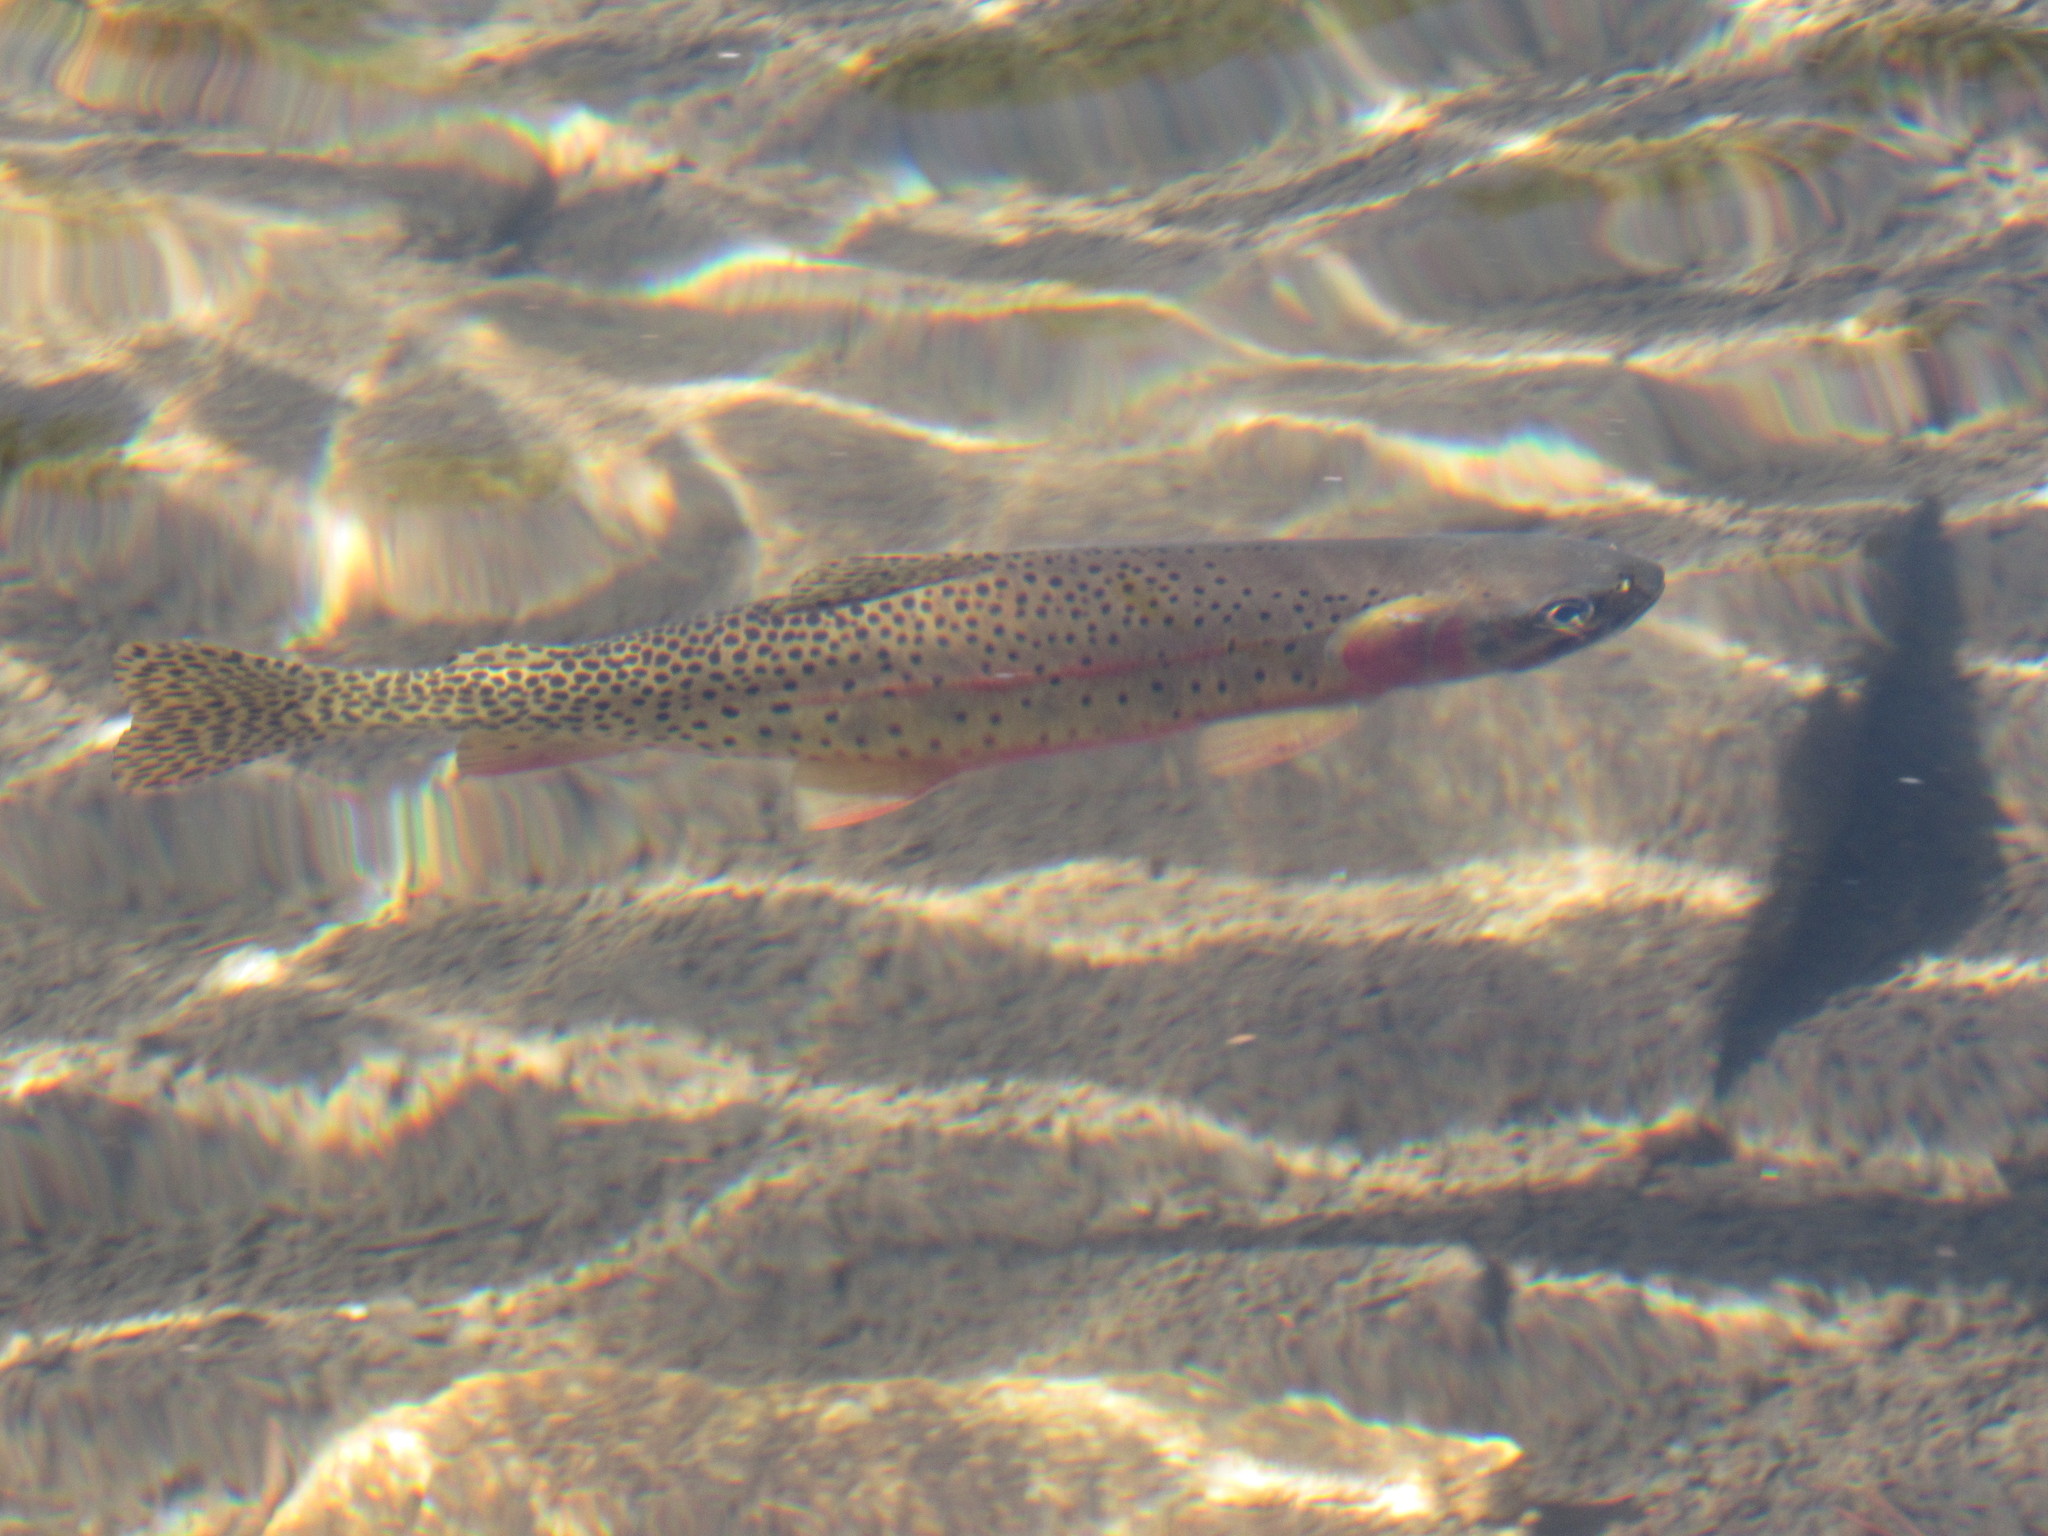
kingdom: Animalia
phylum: Chordata
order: Salmoniformes
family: Salmonidae
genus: Oncorhynchus
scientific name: Oncorhynchus virginalis
